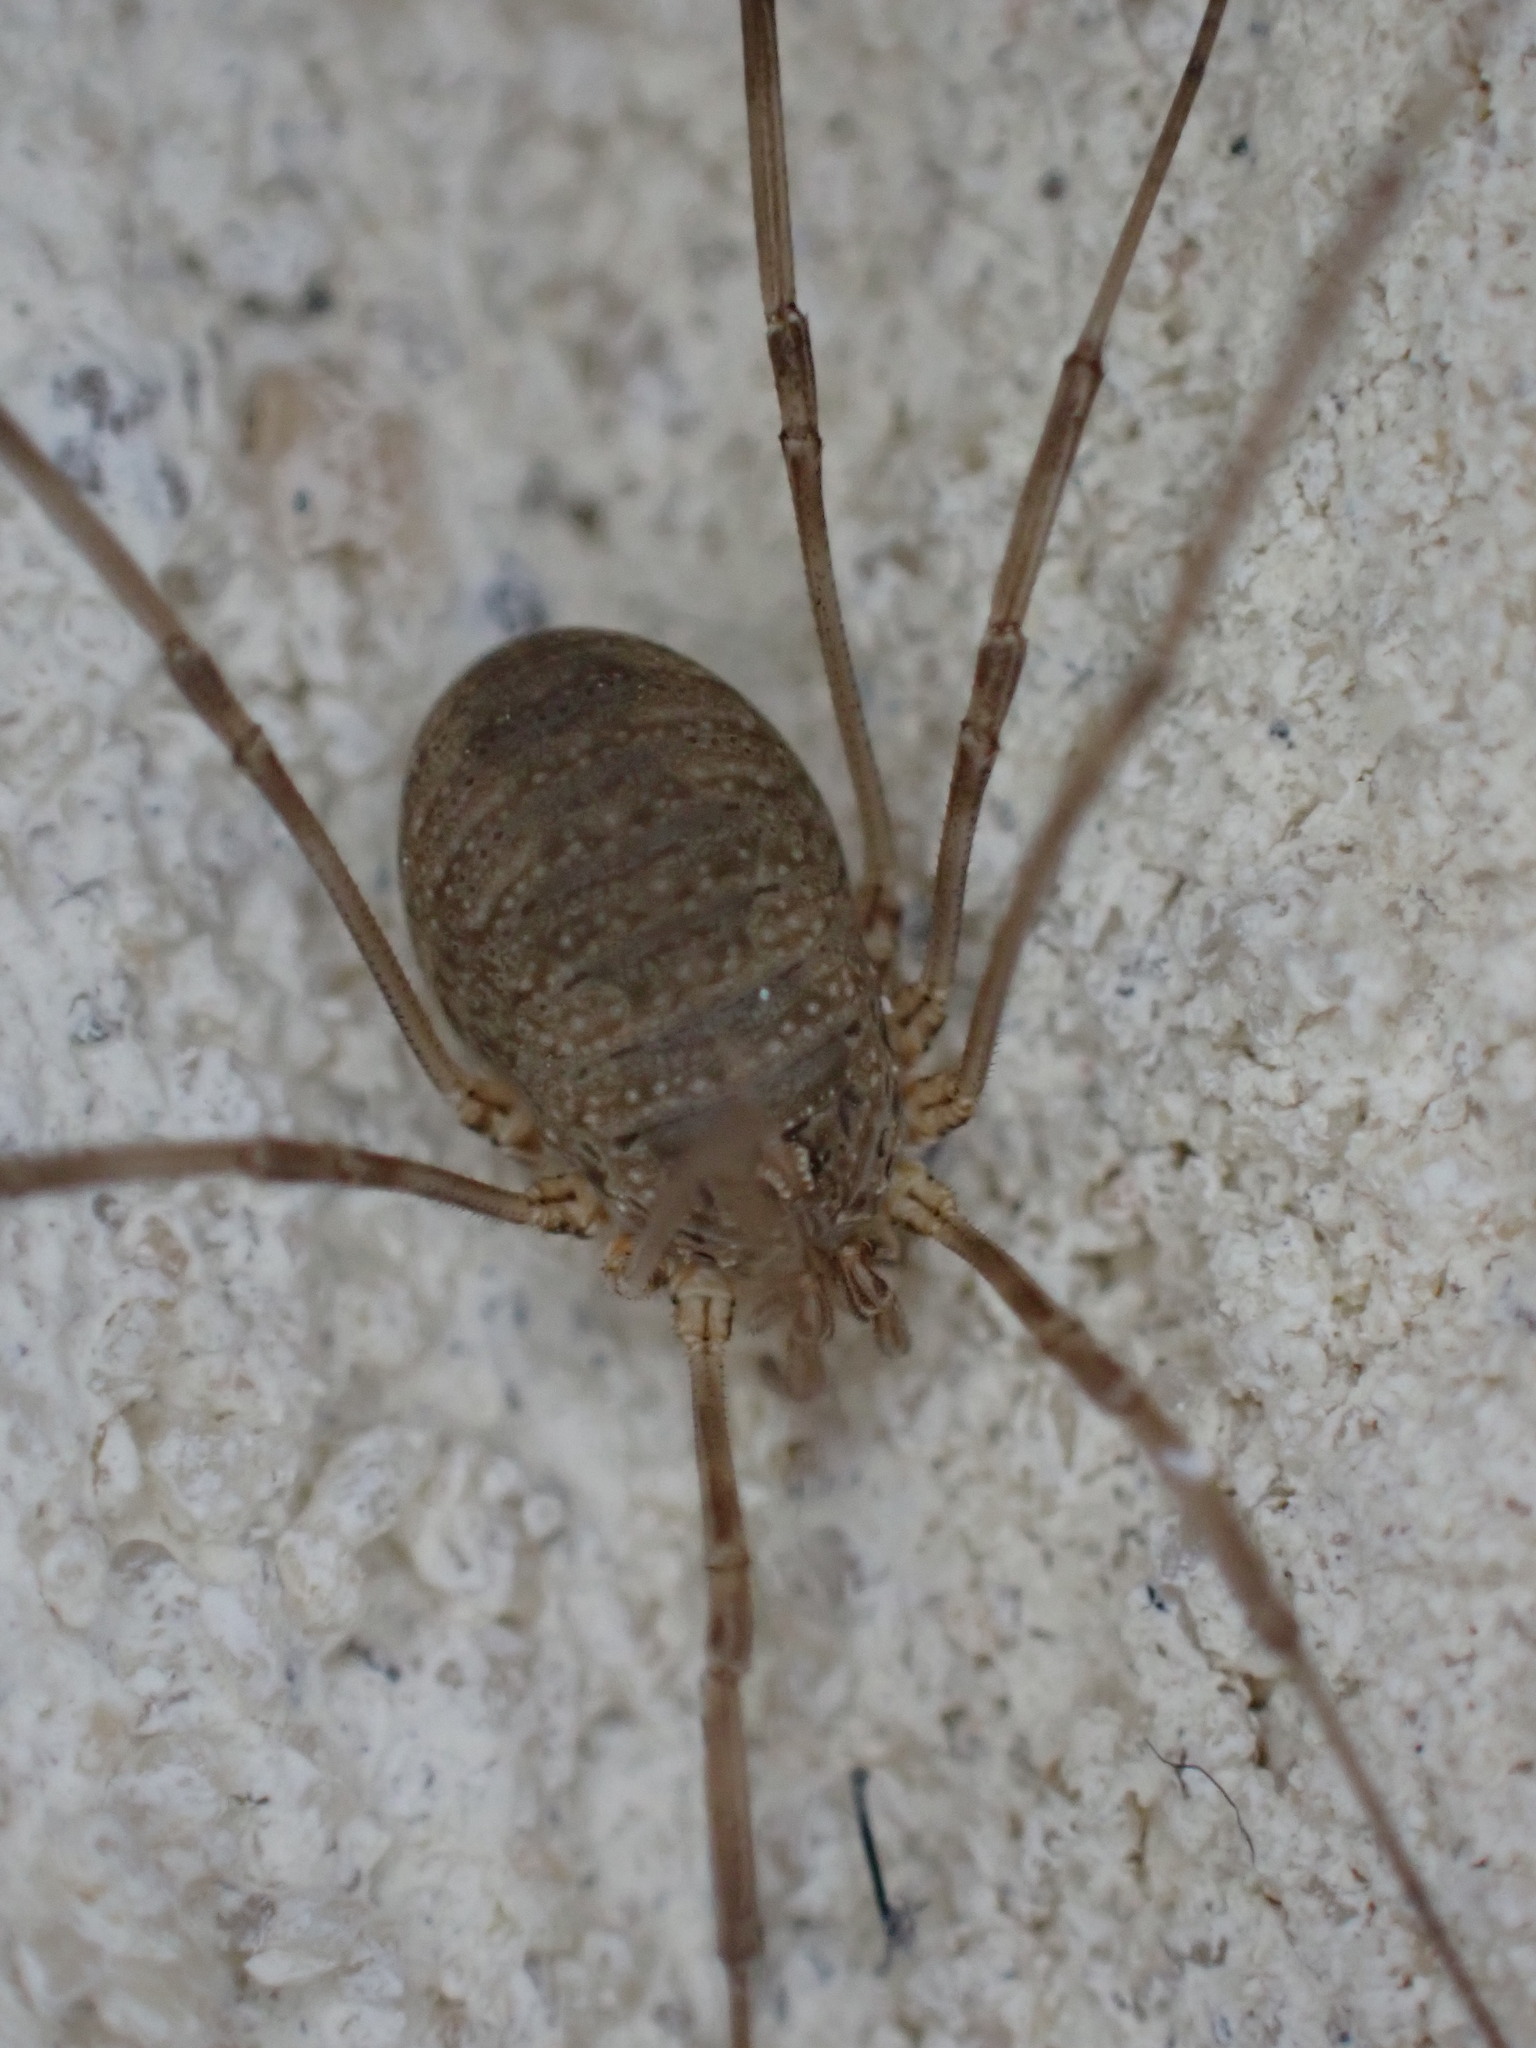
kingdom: Animalia
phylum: Arthropoda
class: Arachnida
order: Opiliones
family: Phalangiidae
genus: Phalangium
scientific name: Phalangium opilio
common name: Daddy longleg
